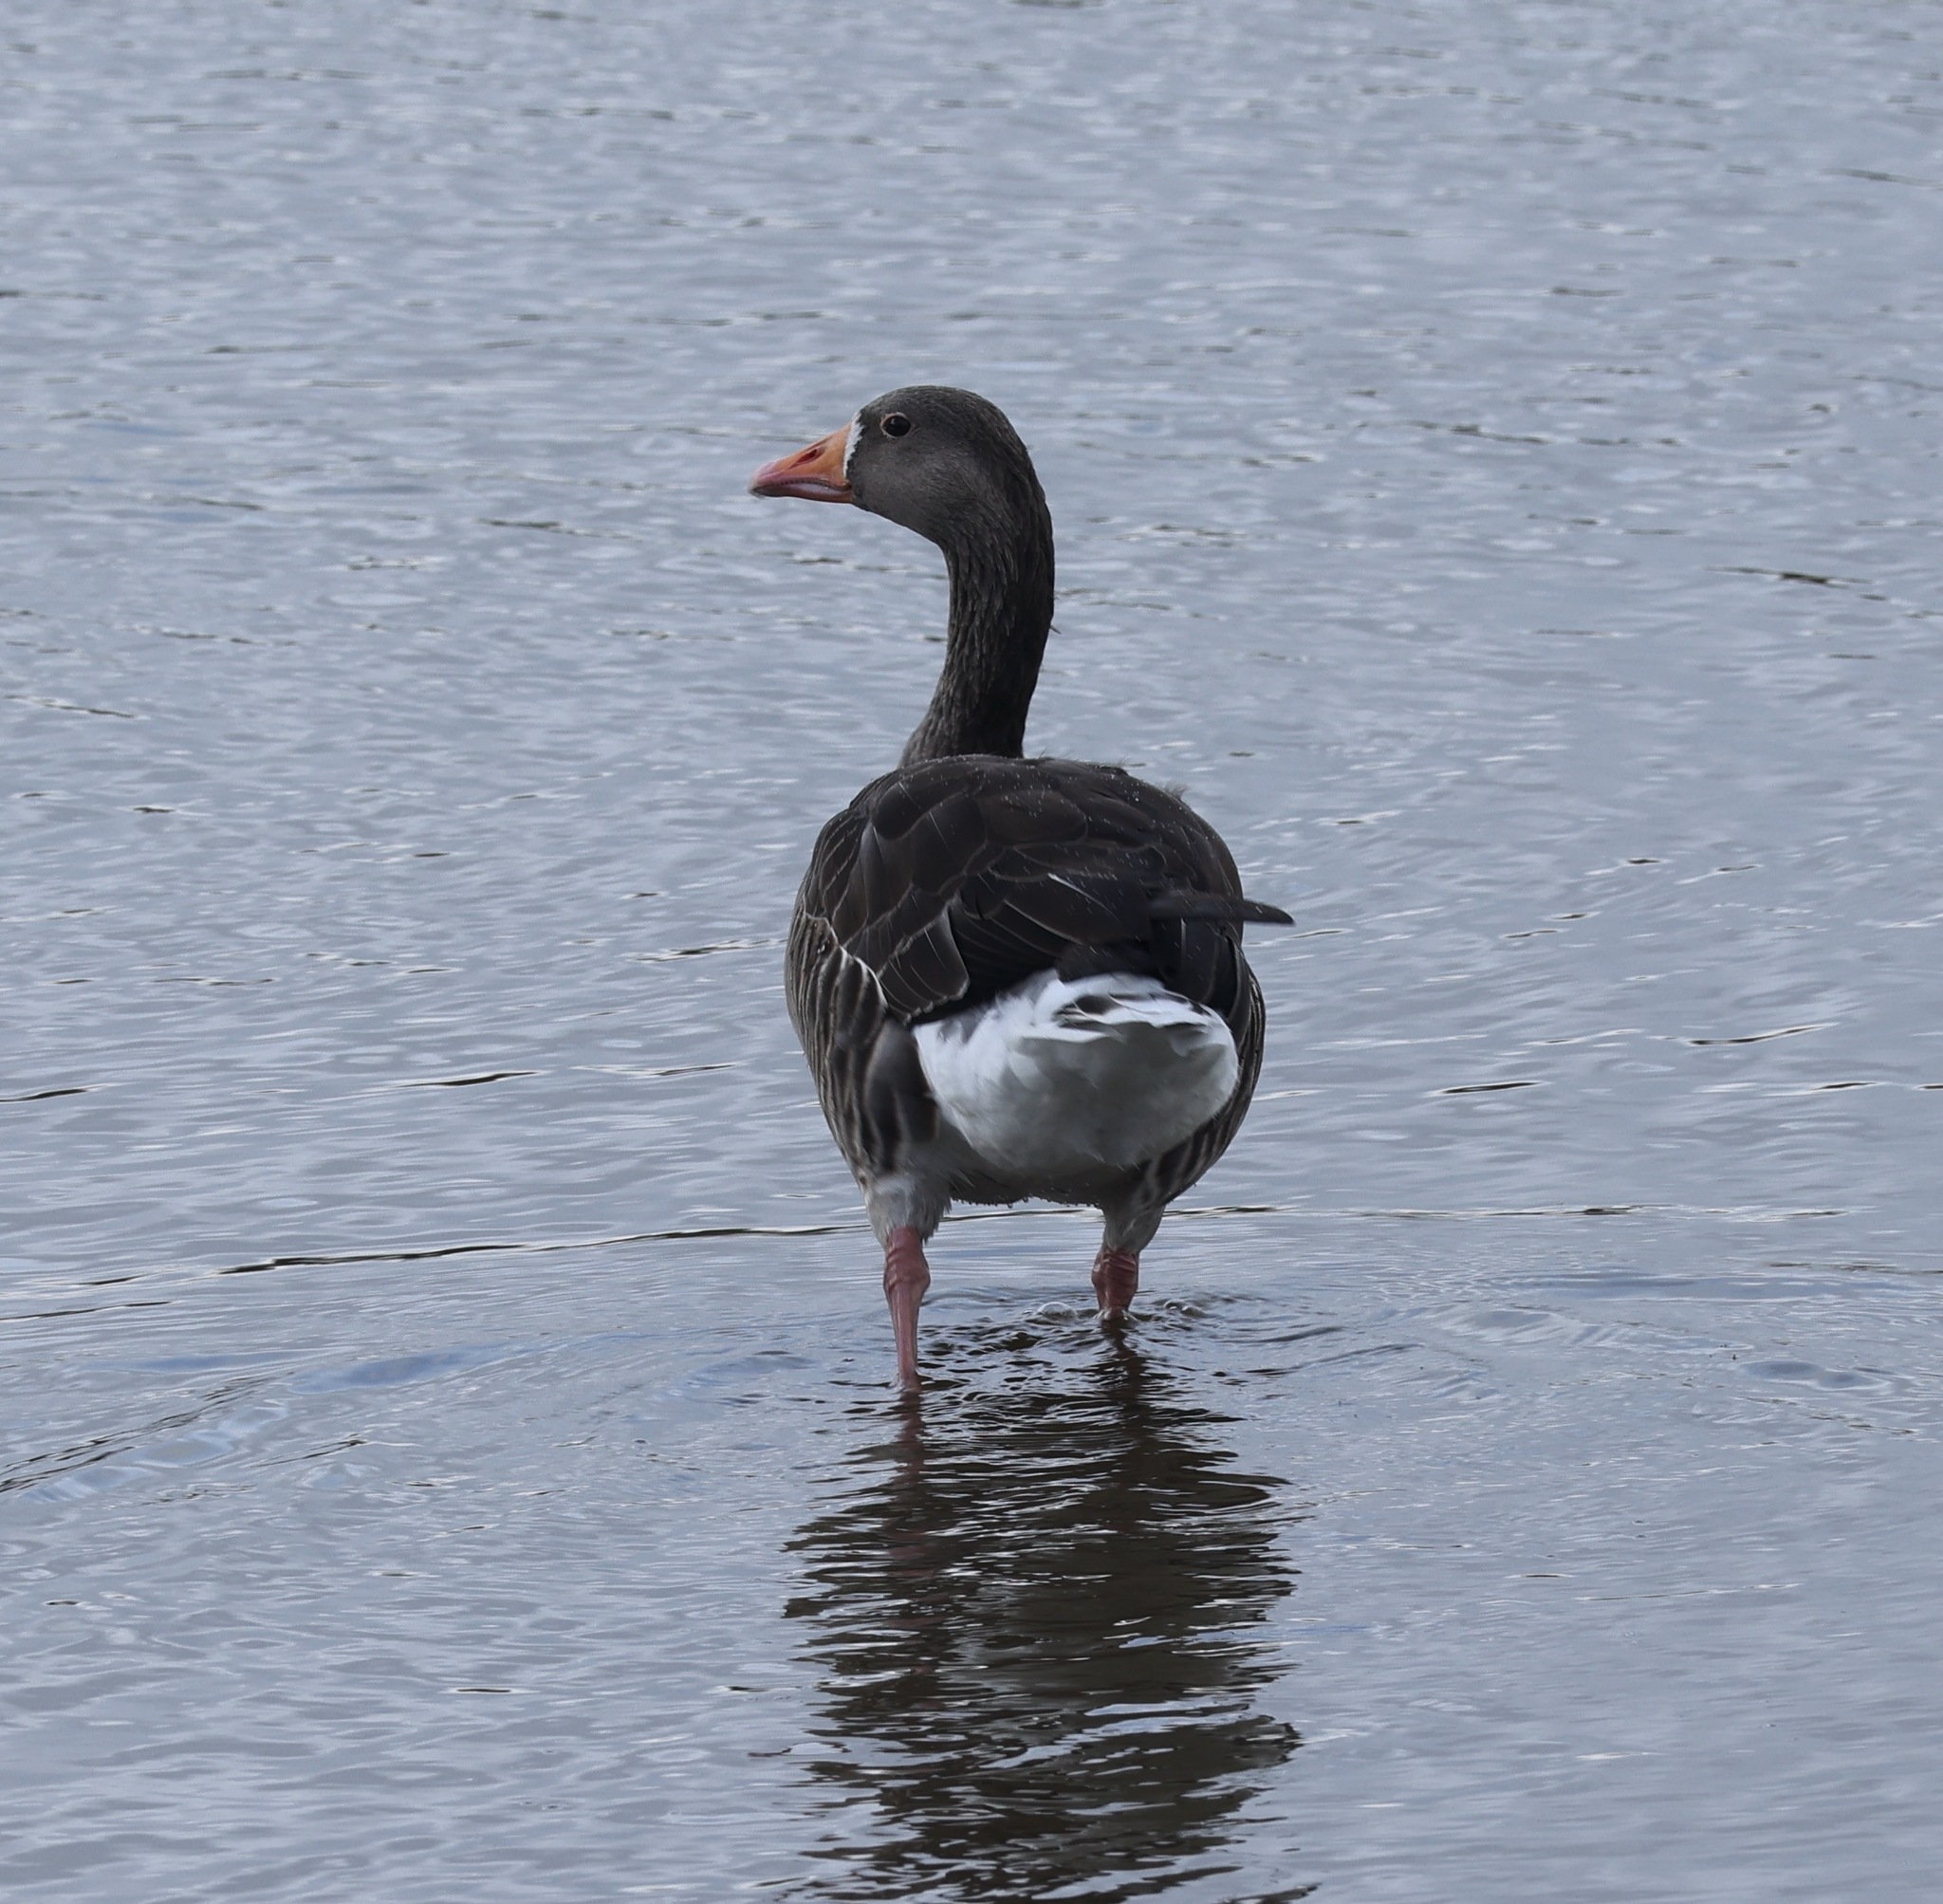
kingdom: Animalia
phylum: Chordata
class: Aves
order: Anseriformes
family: Anatidae
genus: Anser
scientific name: Anser anser
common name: Greylag goose
